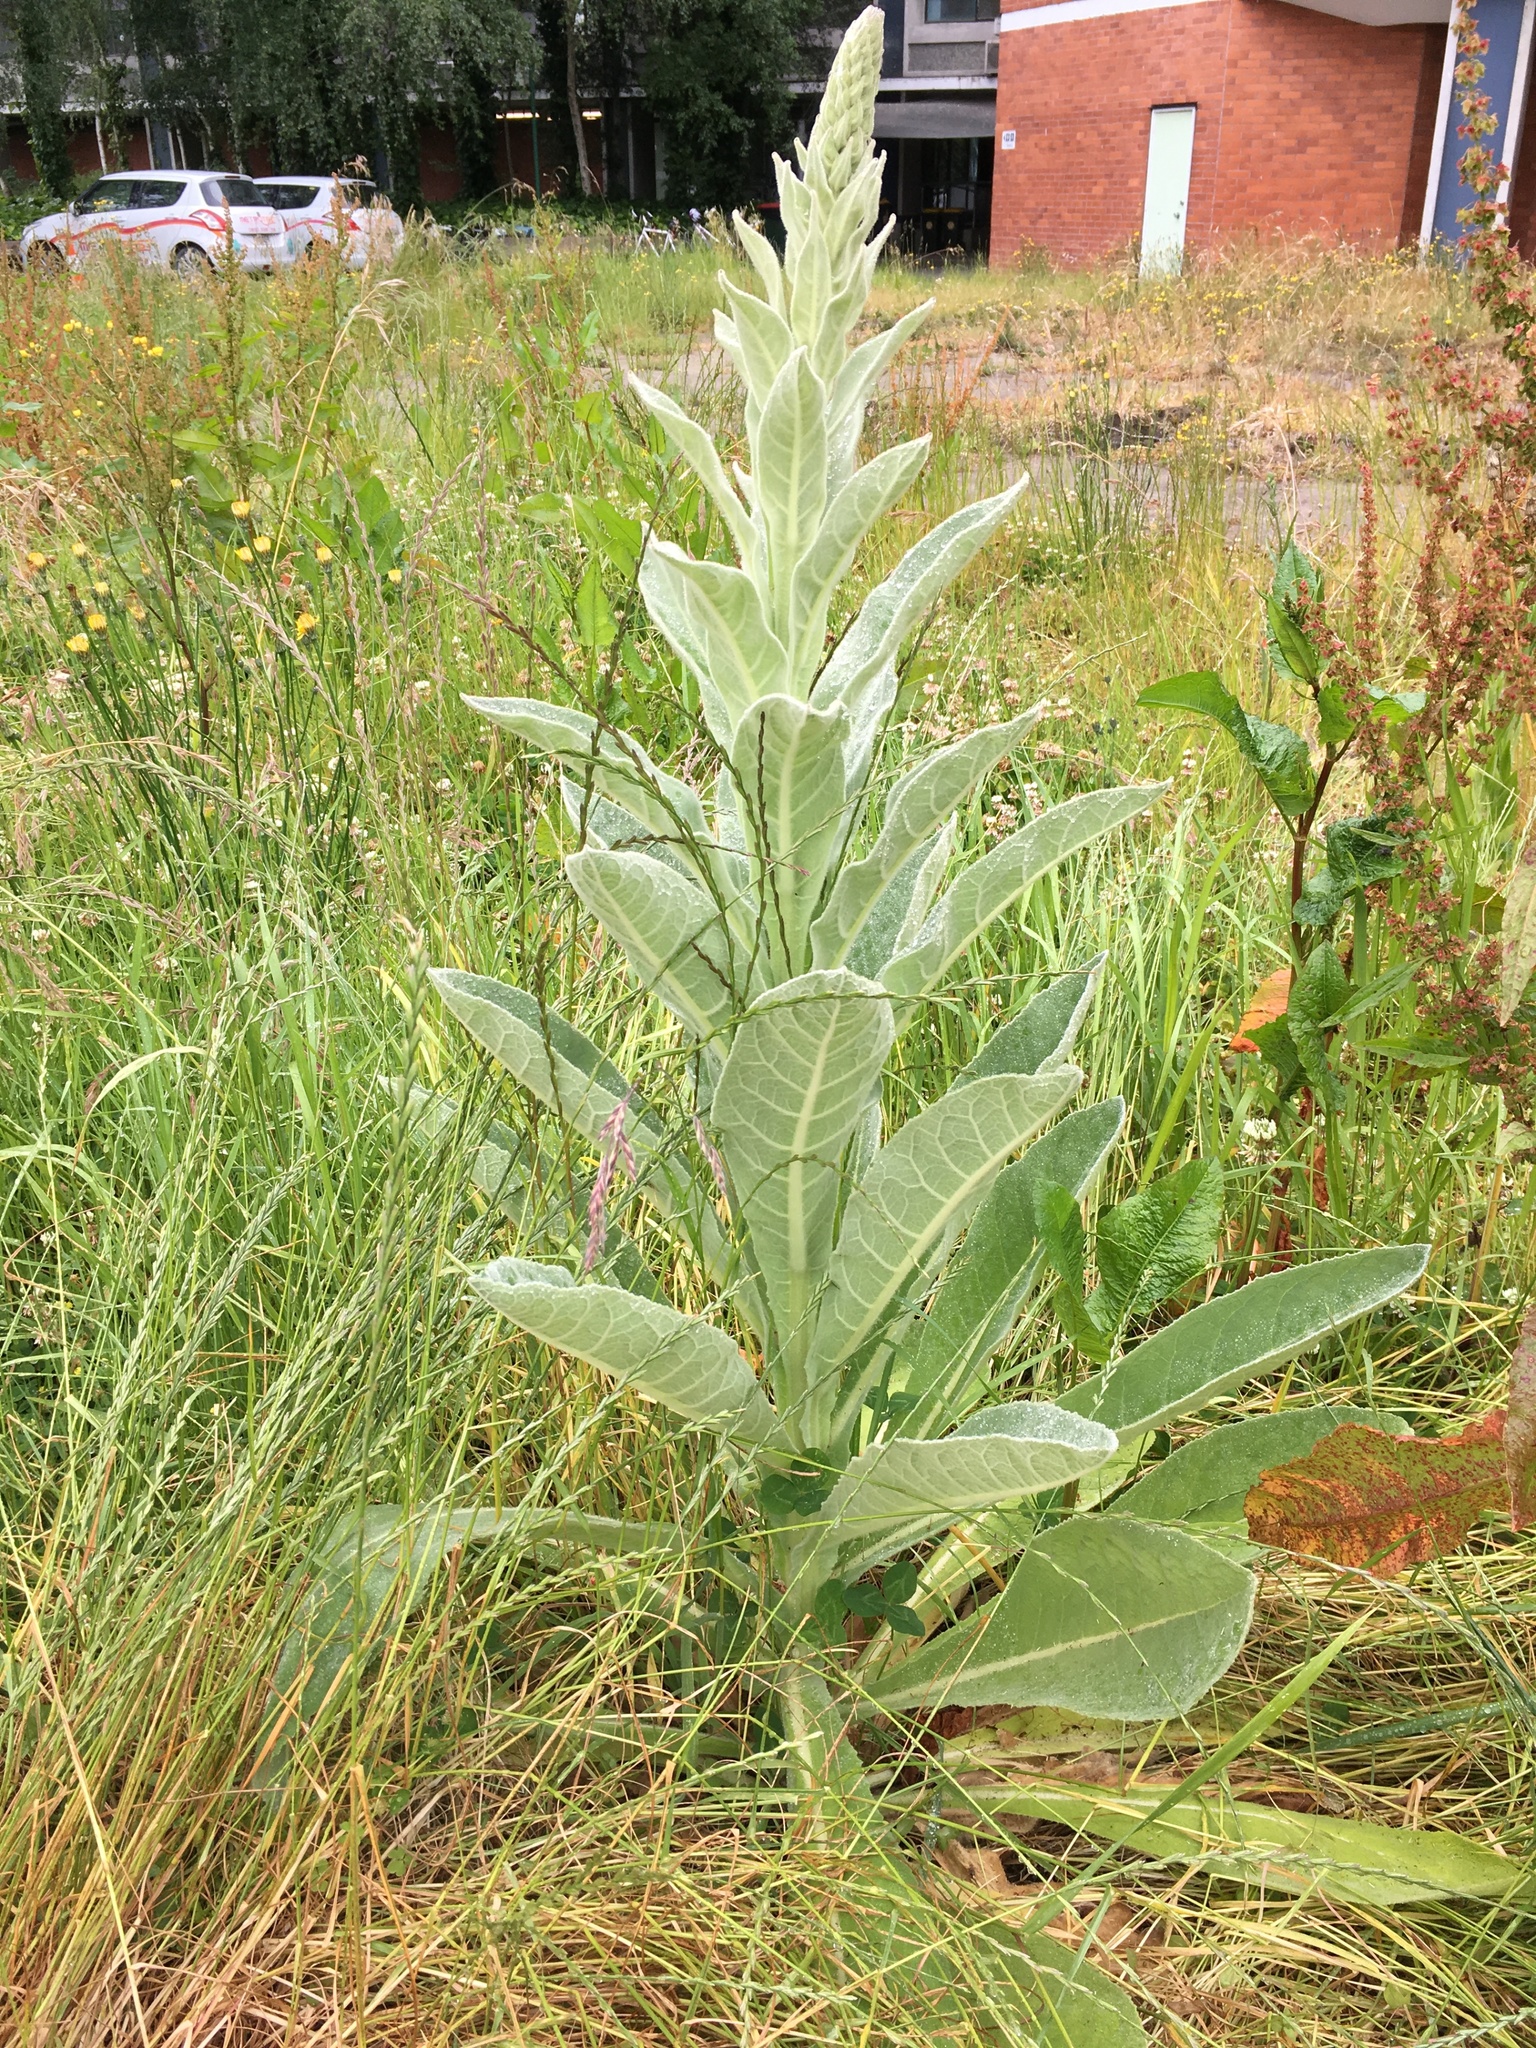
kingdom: Plantae
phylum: Tracheophyta
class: Magnoliopsida
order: Lamiales
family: Scrophulariaceae
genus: Verbascum
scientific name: Verbascum thapsus
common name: Common mullein
